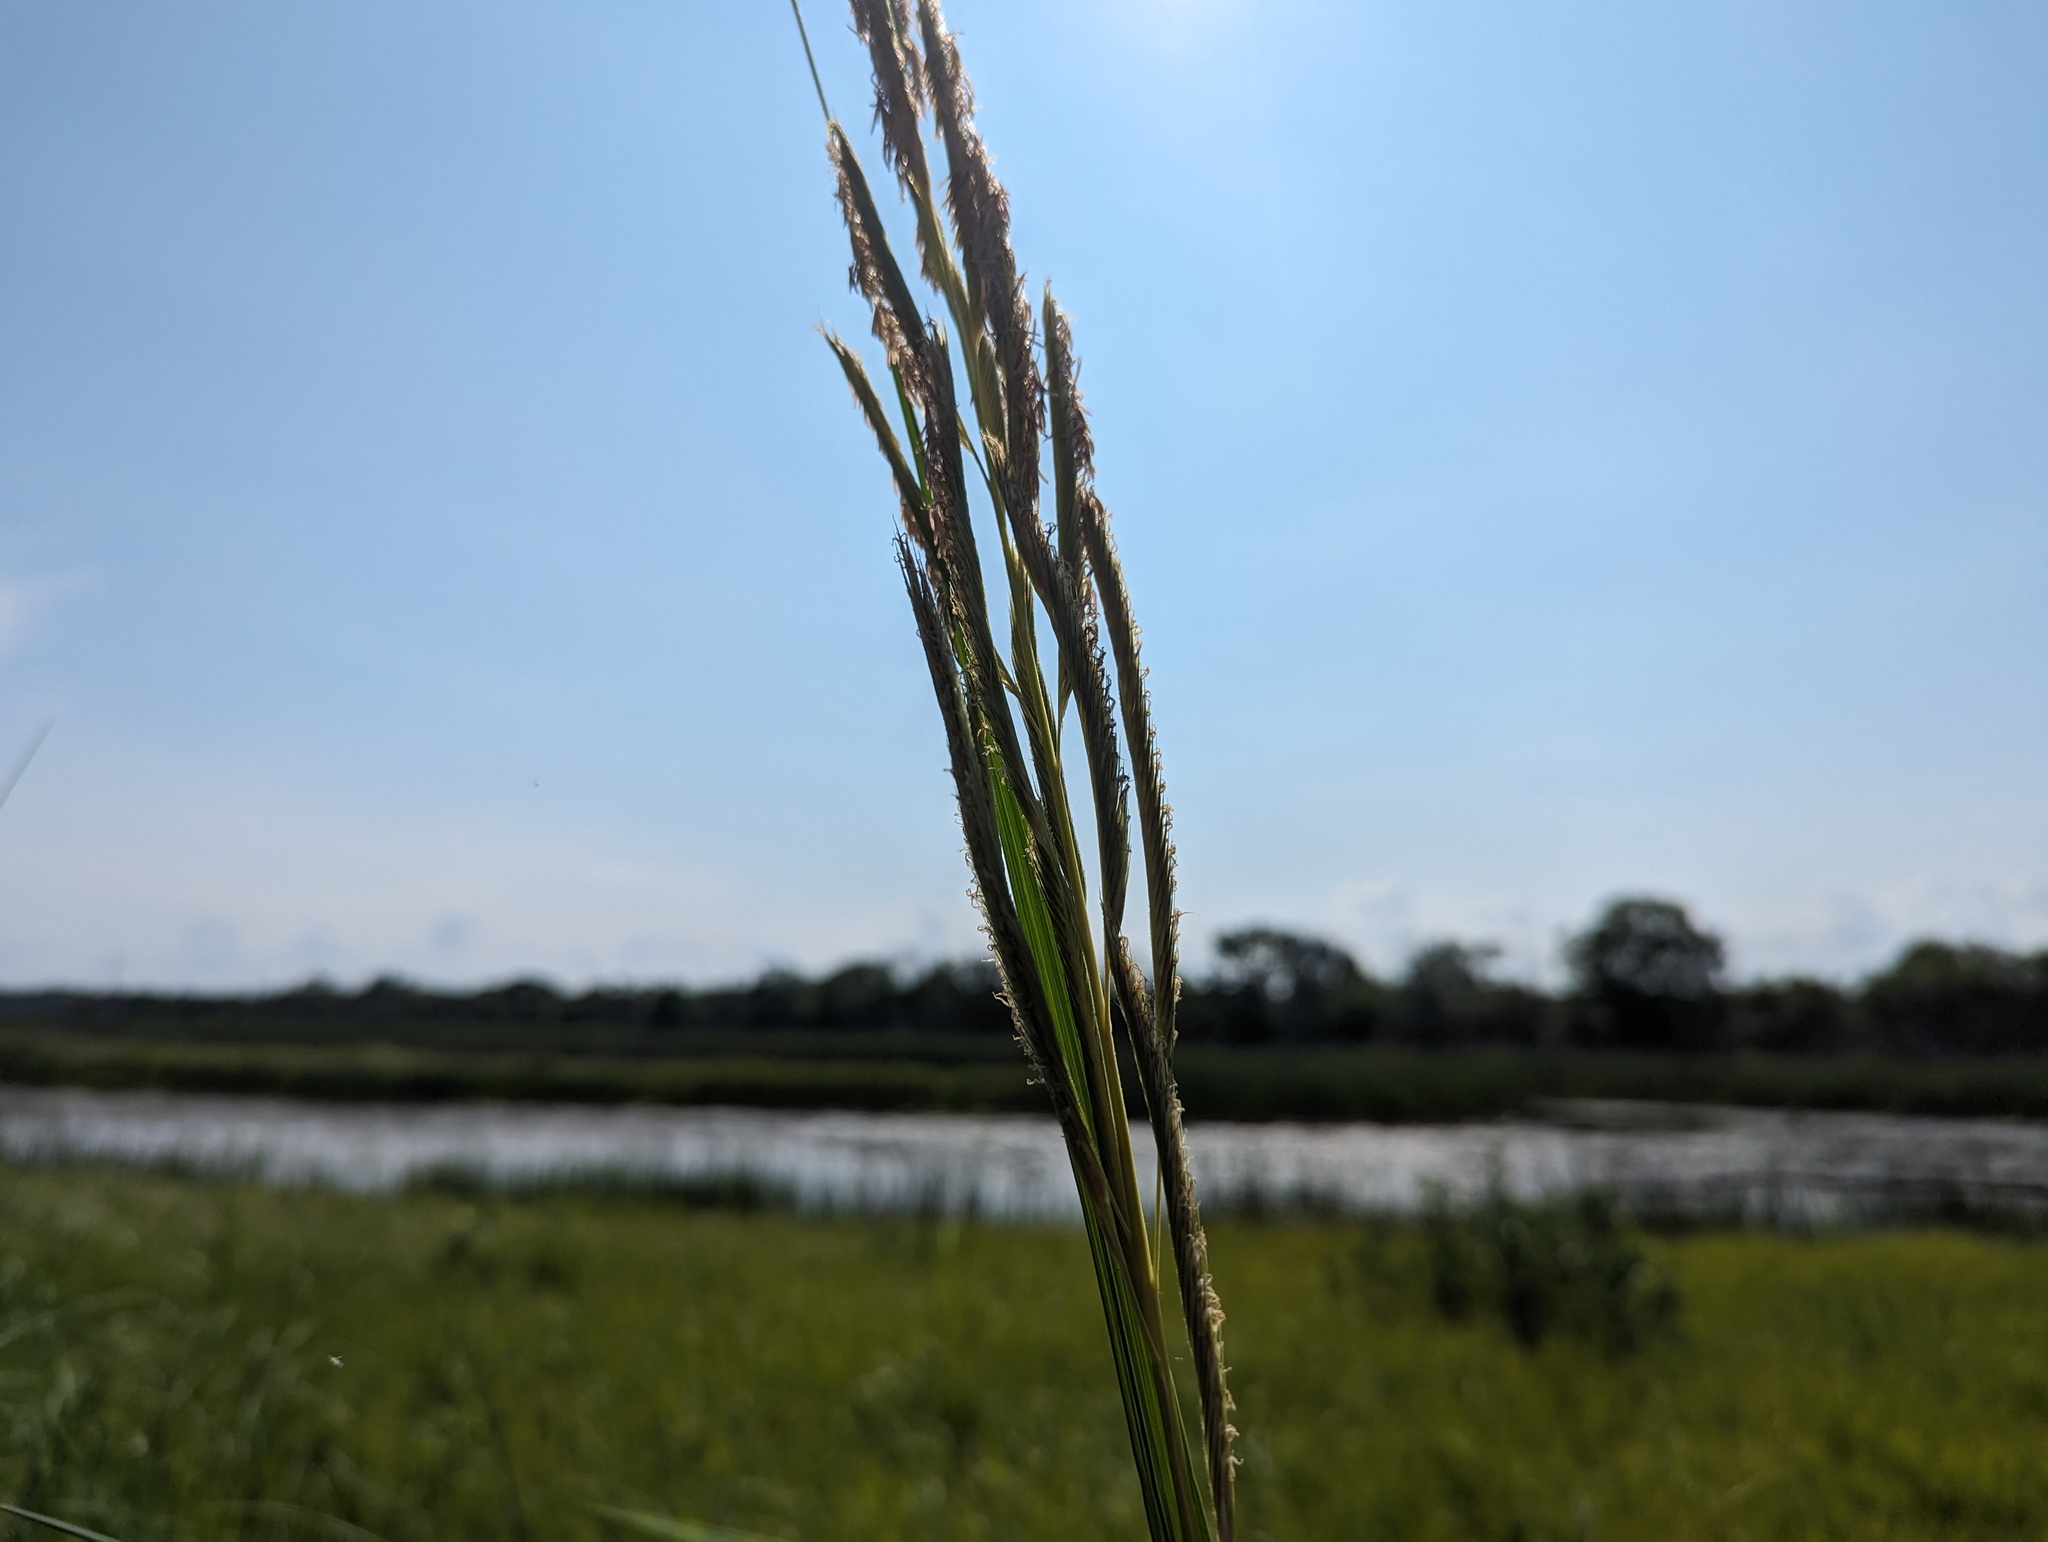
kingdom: Plantae
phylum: Tracheophyta
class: Liliopsida
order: Poales
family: Poaceae
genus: Sporobolus
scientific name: Sporobolus michauxianus
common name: Freshwater cordgrass
